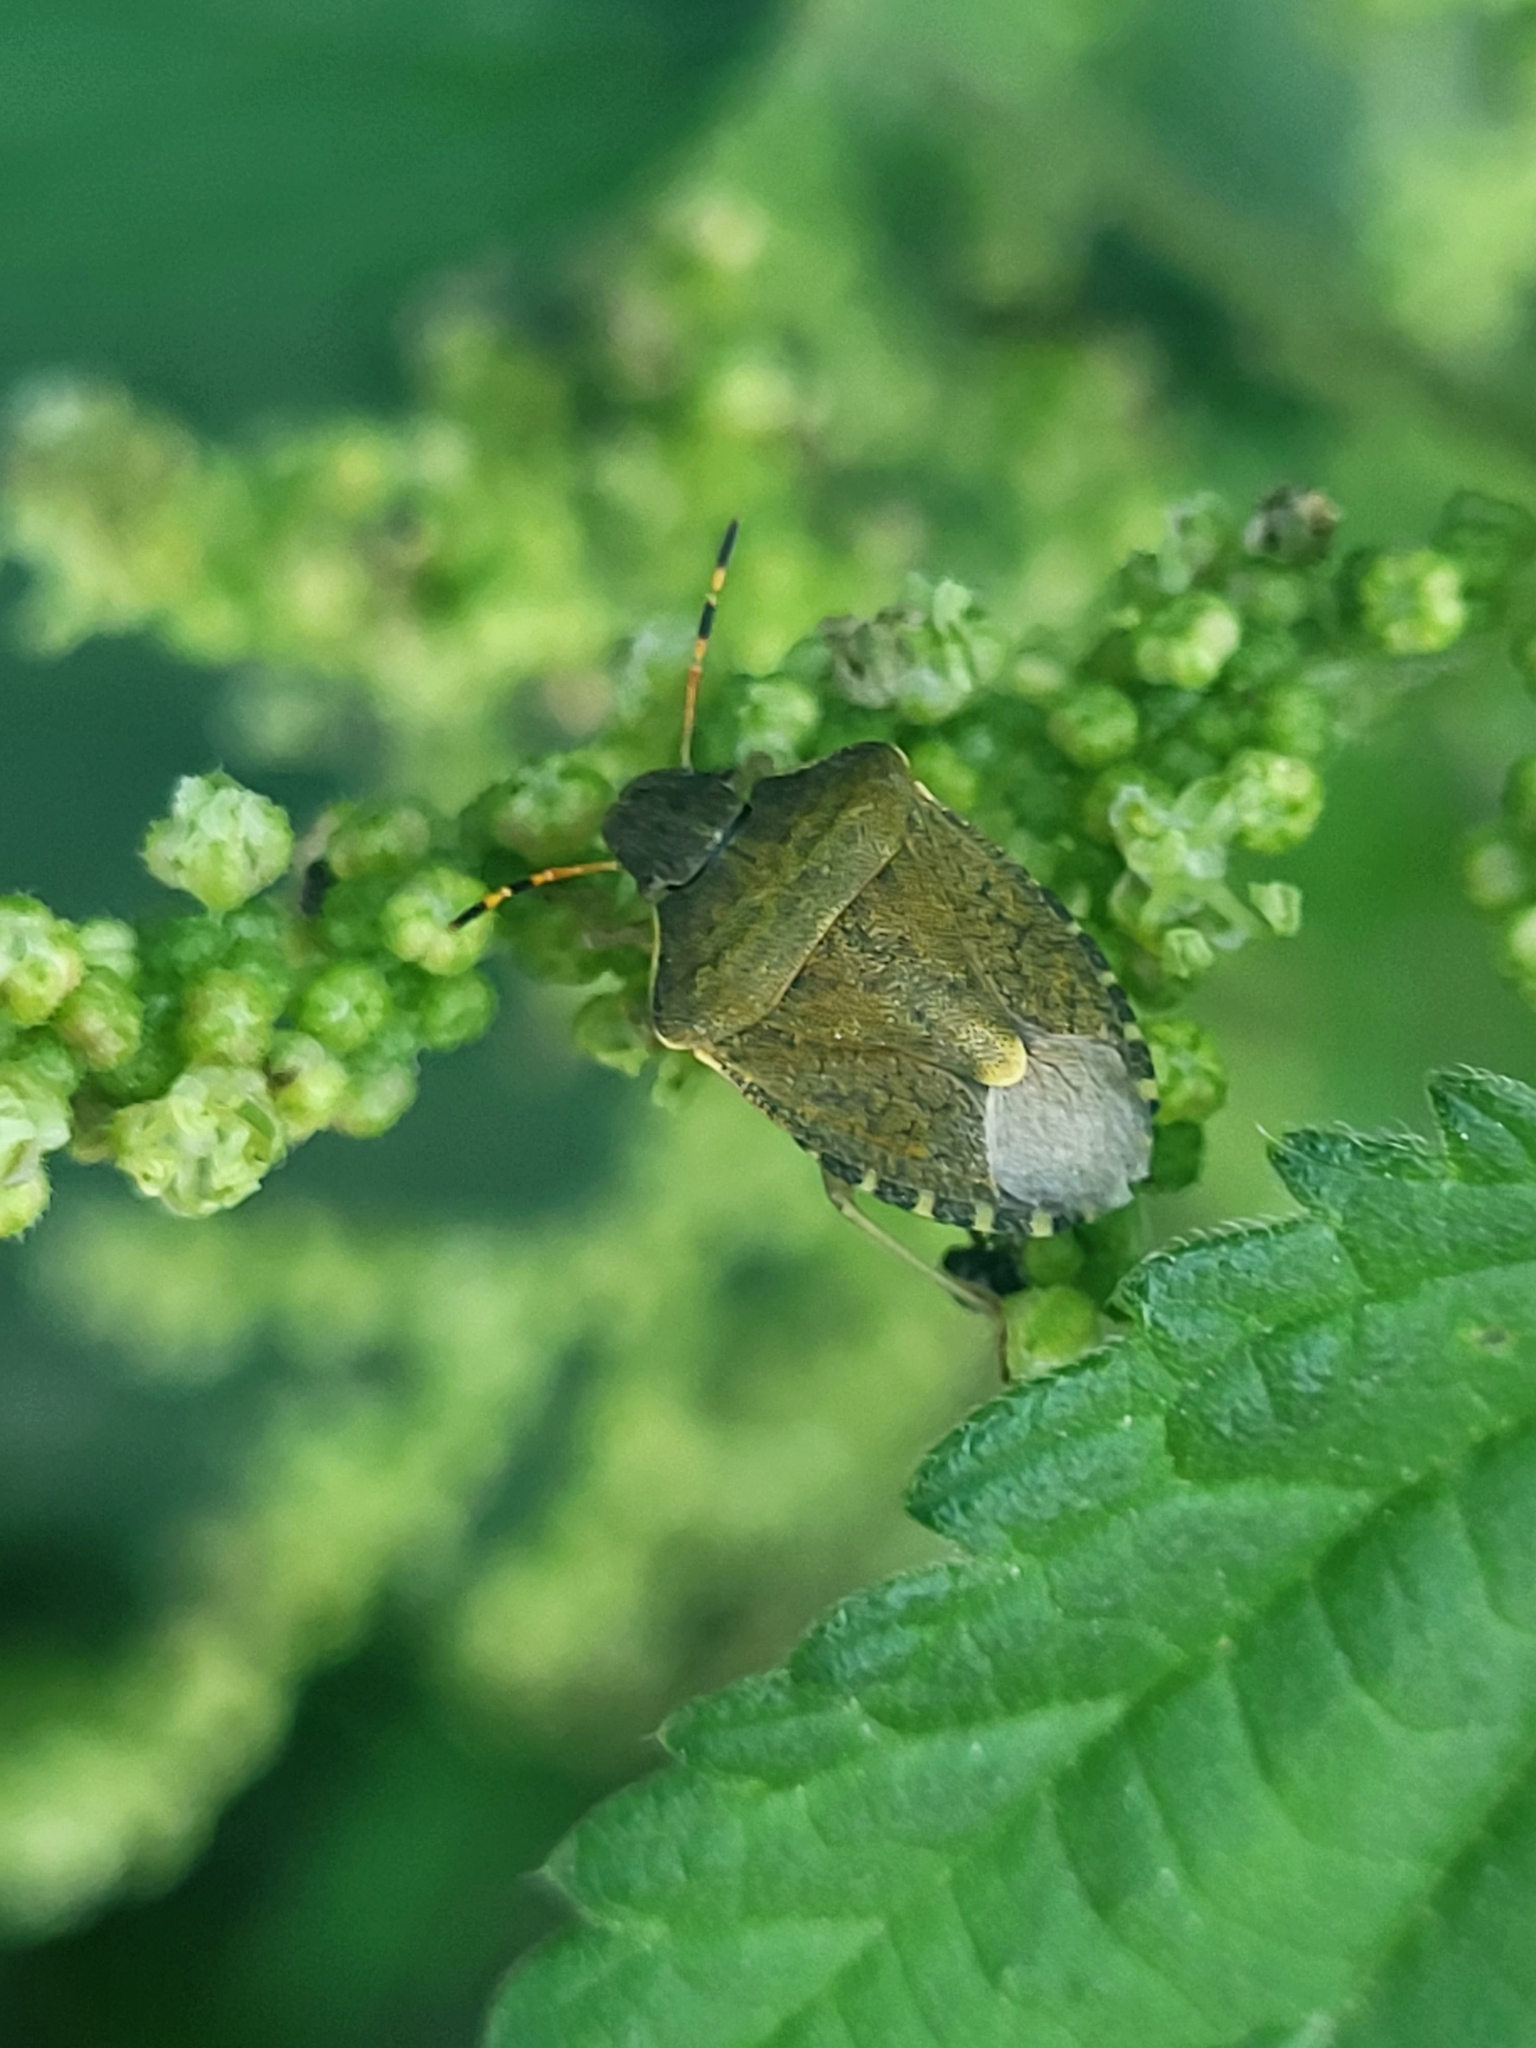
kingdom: Animalia
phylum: Arthropoda
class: Insecta
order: Hemiptera
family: Pentatomidae
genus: Holcostethus
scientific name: Holcostethus strictus
